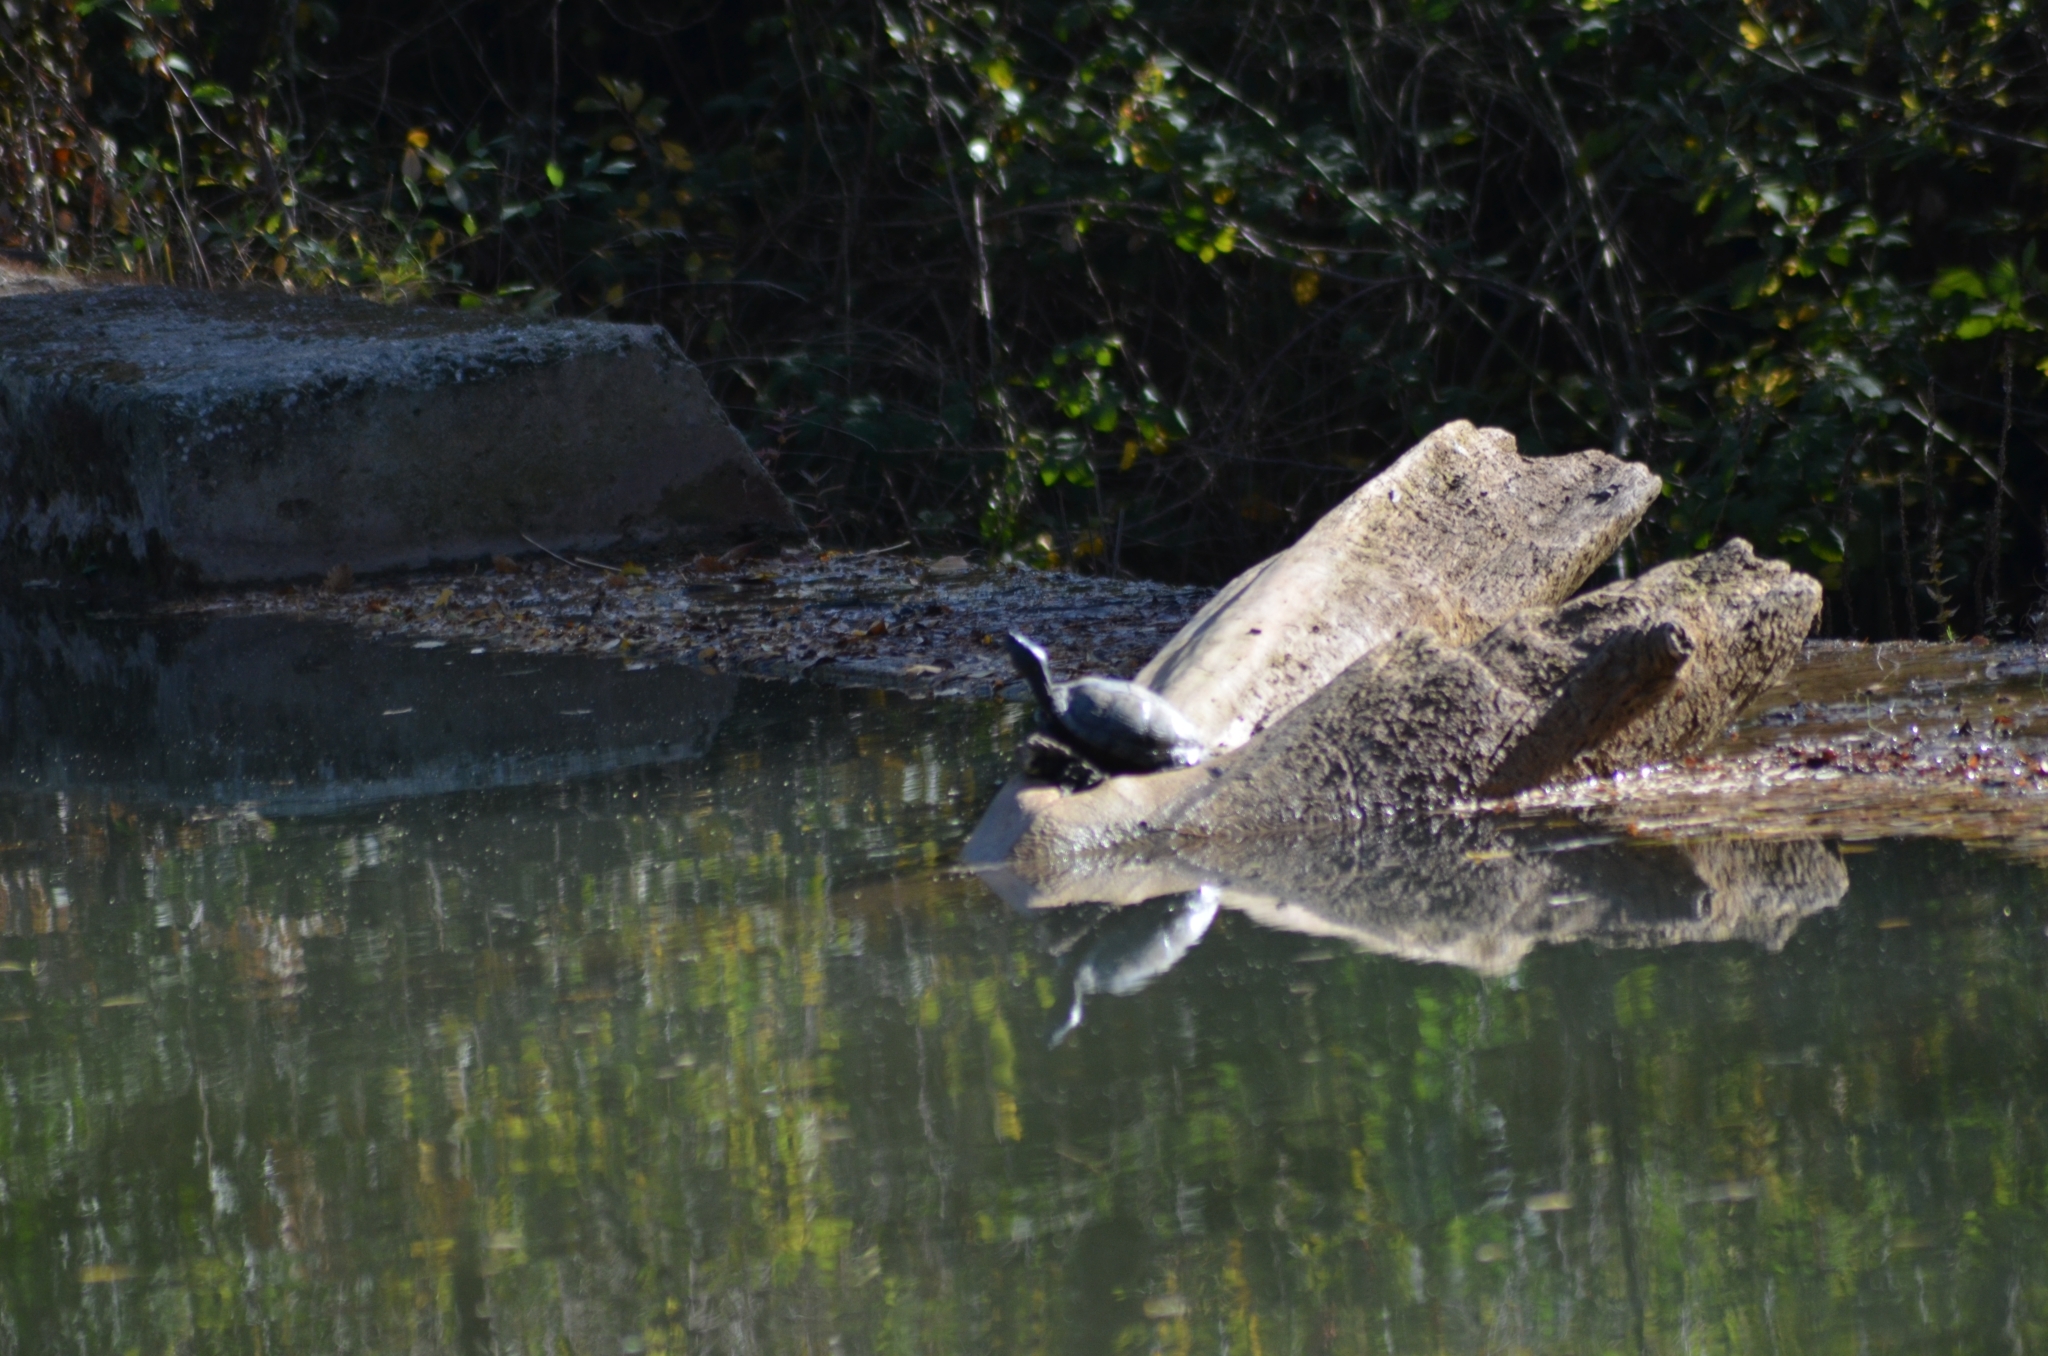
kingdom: Animalia
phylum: Chordata
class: Testudines
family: Emydidae
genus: Trachemys
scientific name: Trachemys scripta
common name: Slider
